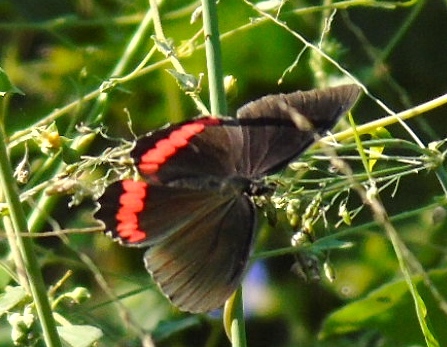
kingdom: Animalia
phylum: Arthropoda
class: Insecta
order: Lepidoptera
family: Nymphalidae
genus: Biblis
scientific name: Biblis aganisa
